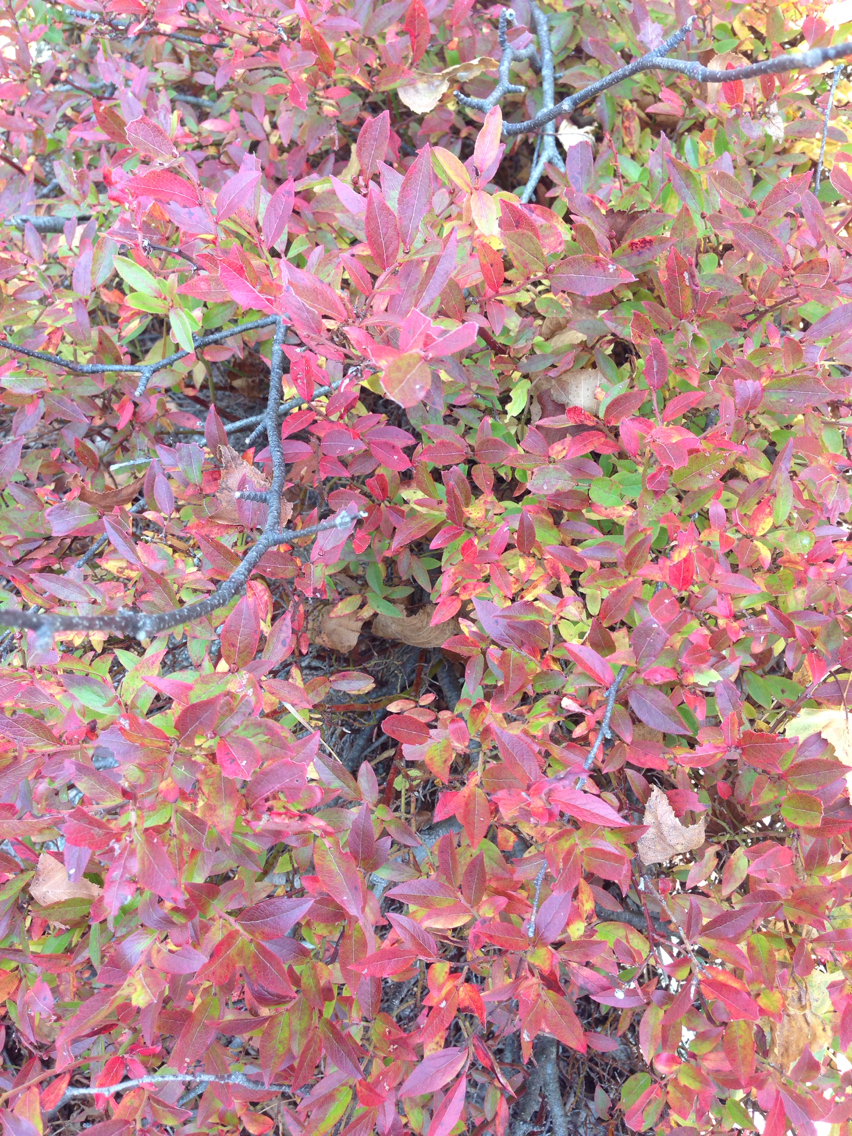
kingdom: Plantae
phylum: Tracheophyta
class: Magnoliopsida
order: Ericales
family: Ericaceae
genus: Gaylussacia
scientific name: Gaylussacia baccata
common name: Black huckleberry
